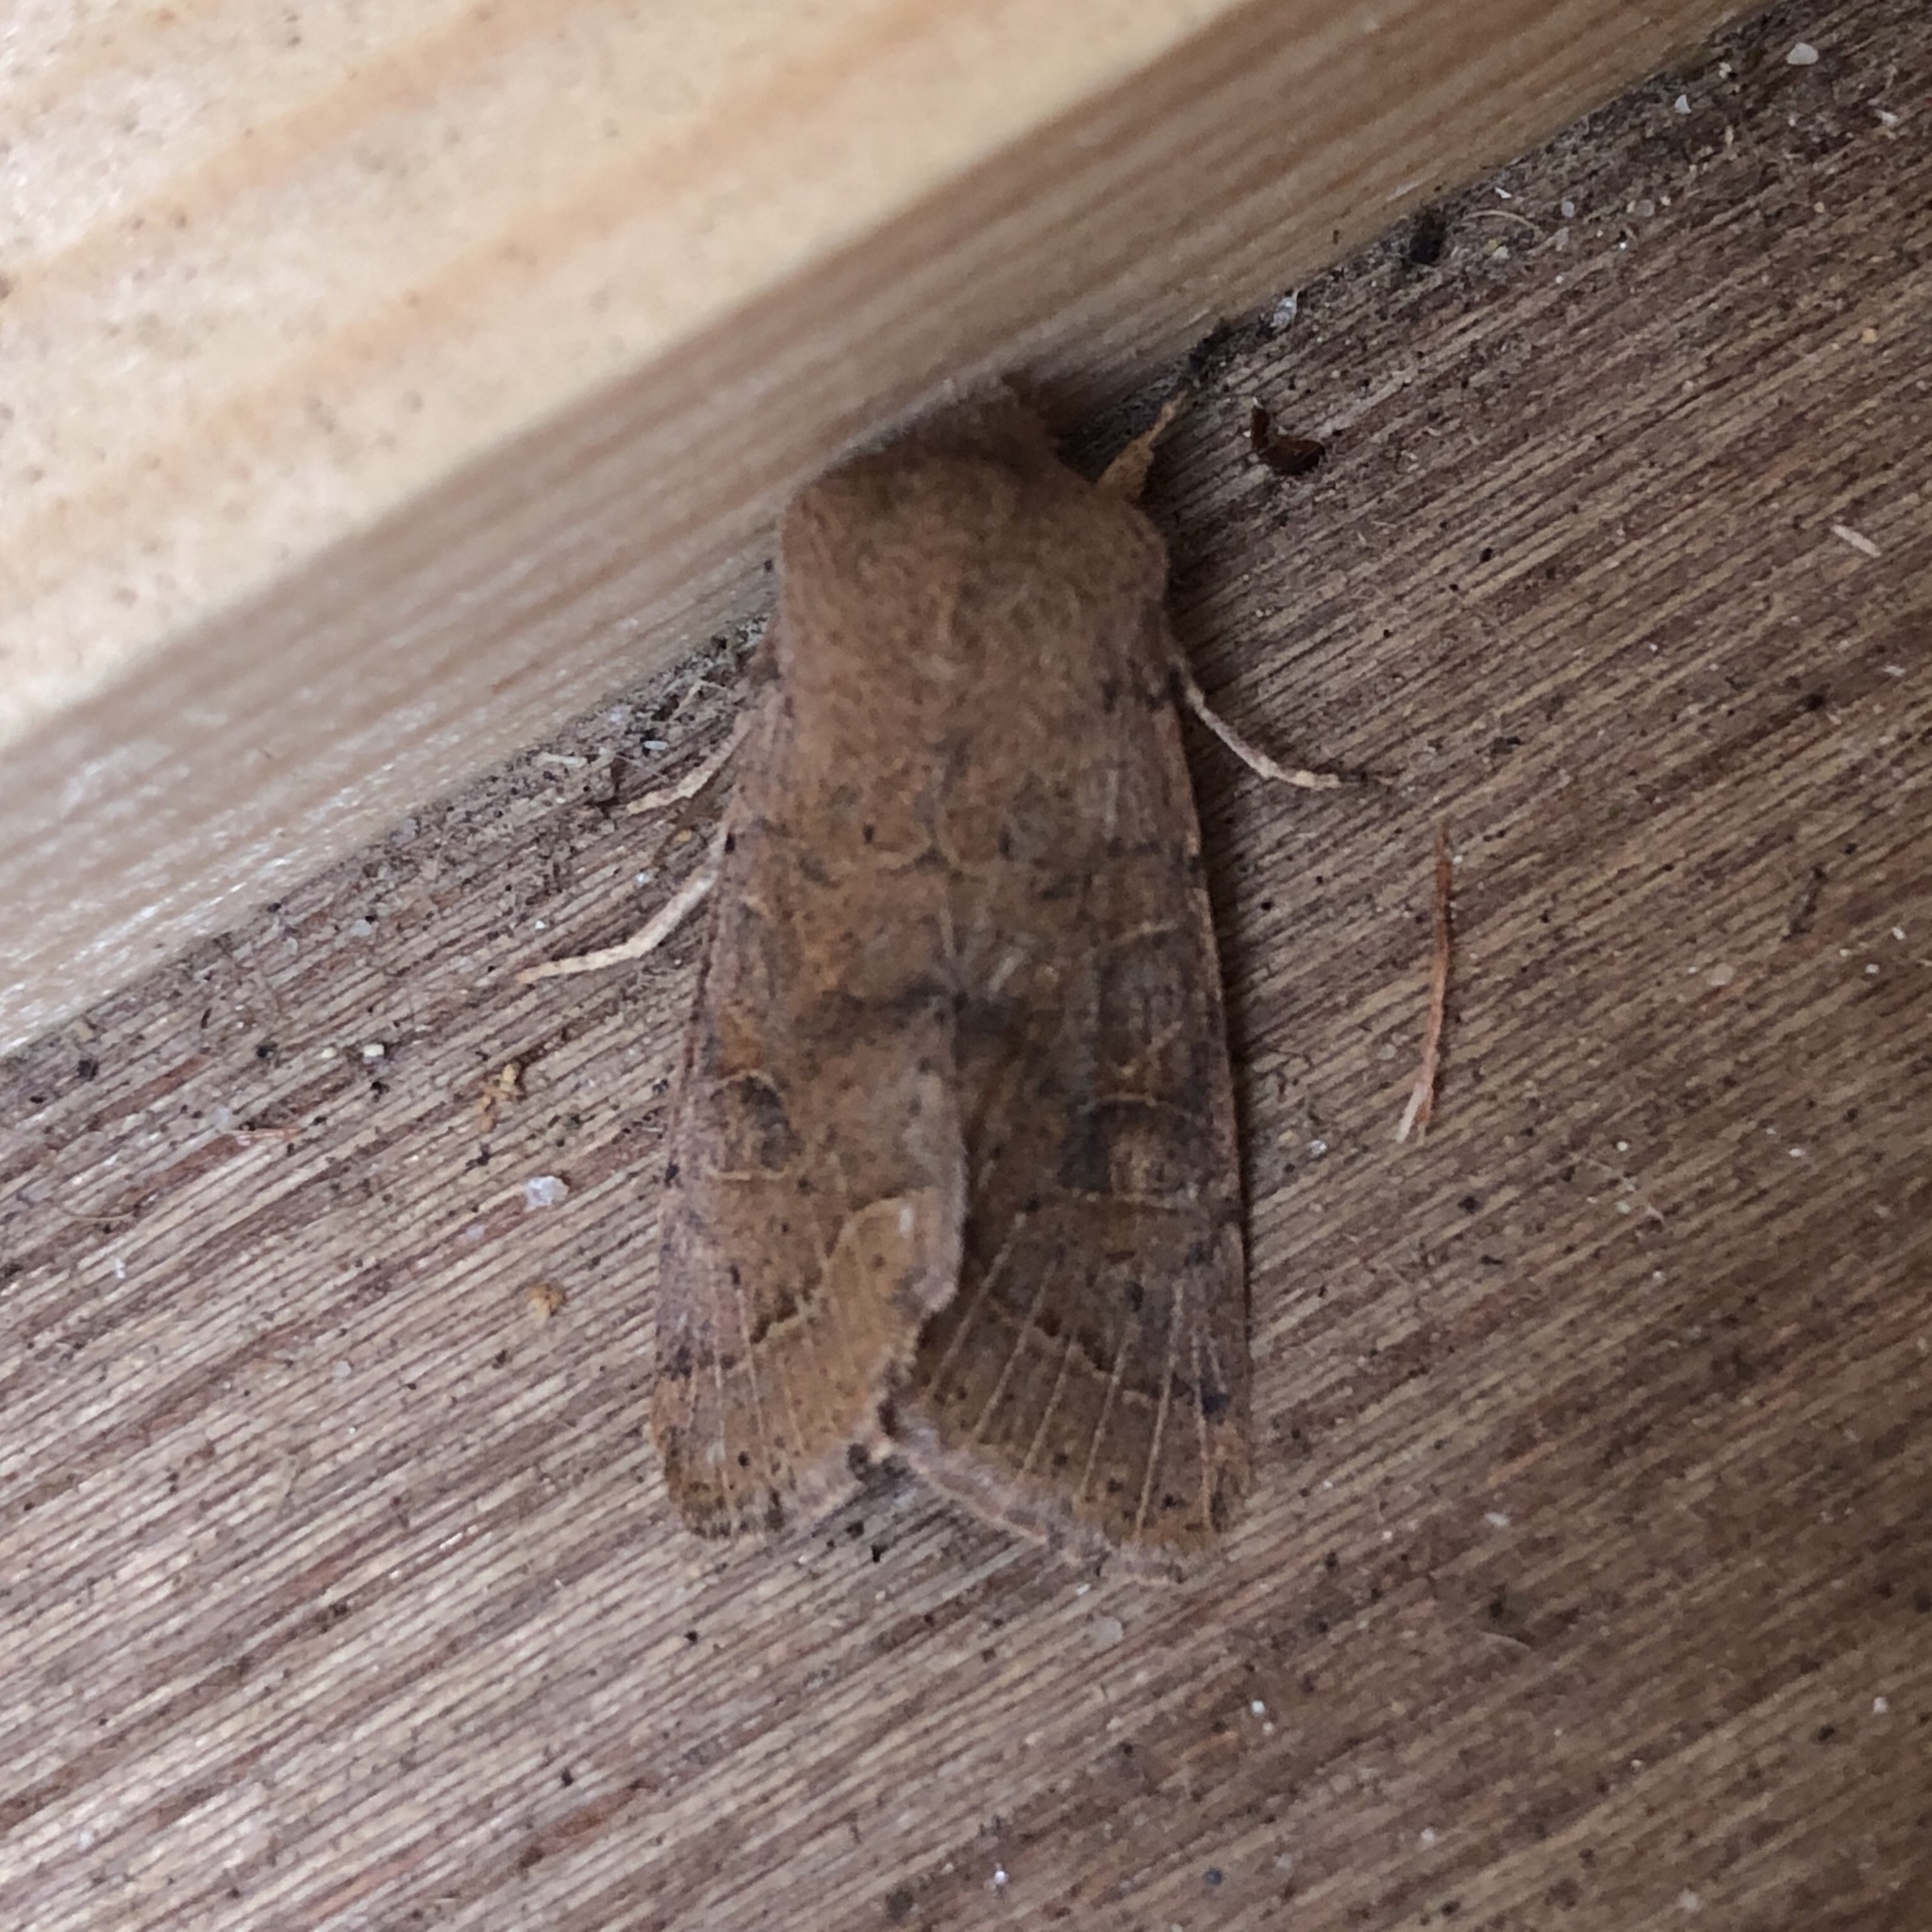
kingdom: Animalia
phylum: Arthropoda
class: Insecta
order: Lepidoptera
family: Noctuidae
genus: Orthosia
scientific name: Orthosia cerasi
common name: Common quaker
